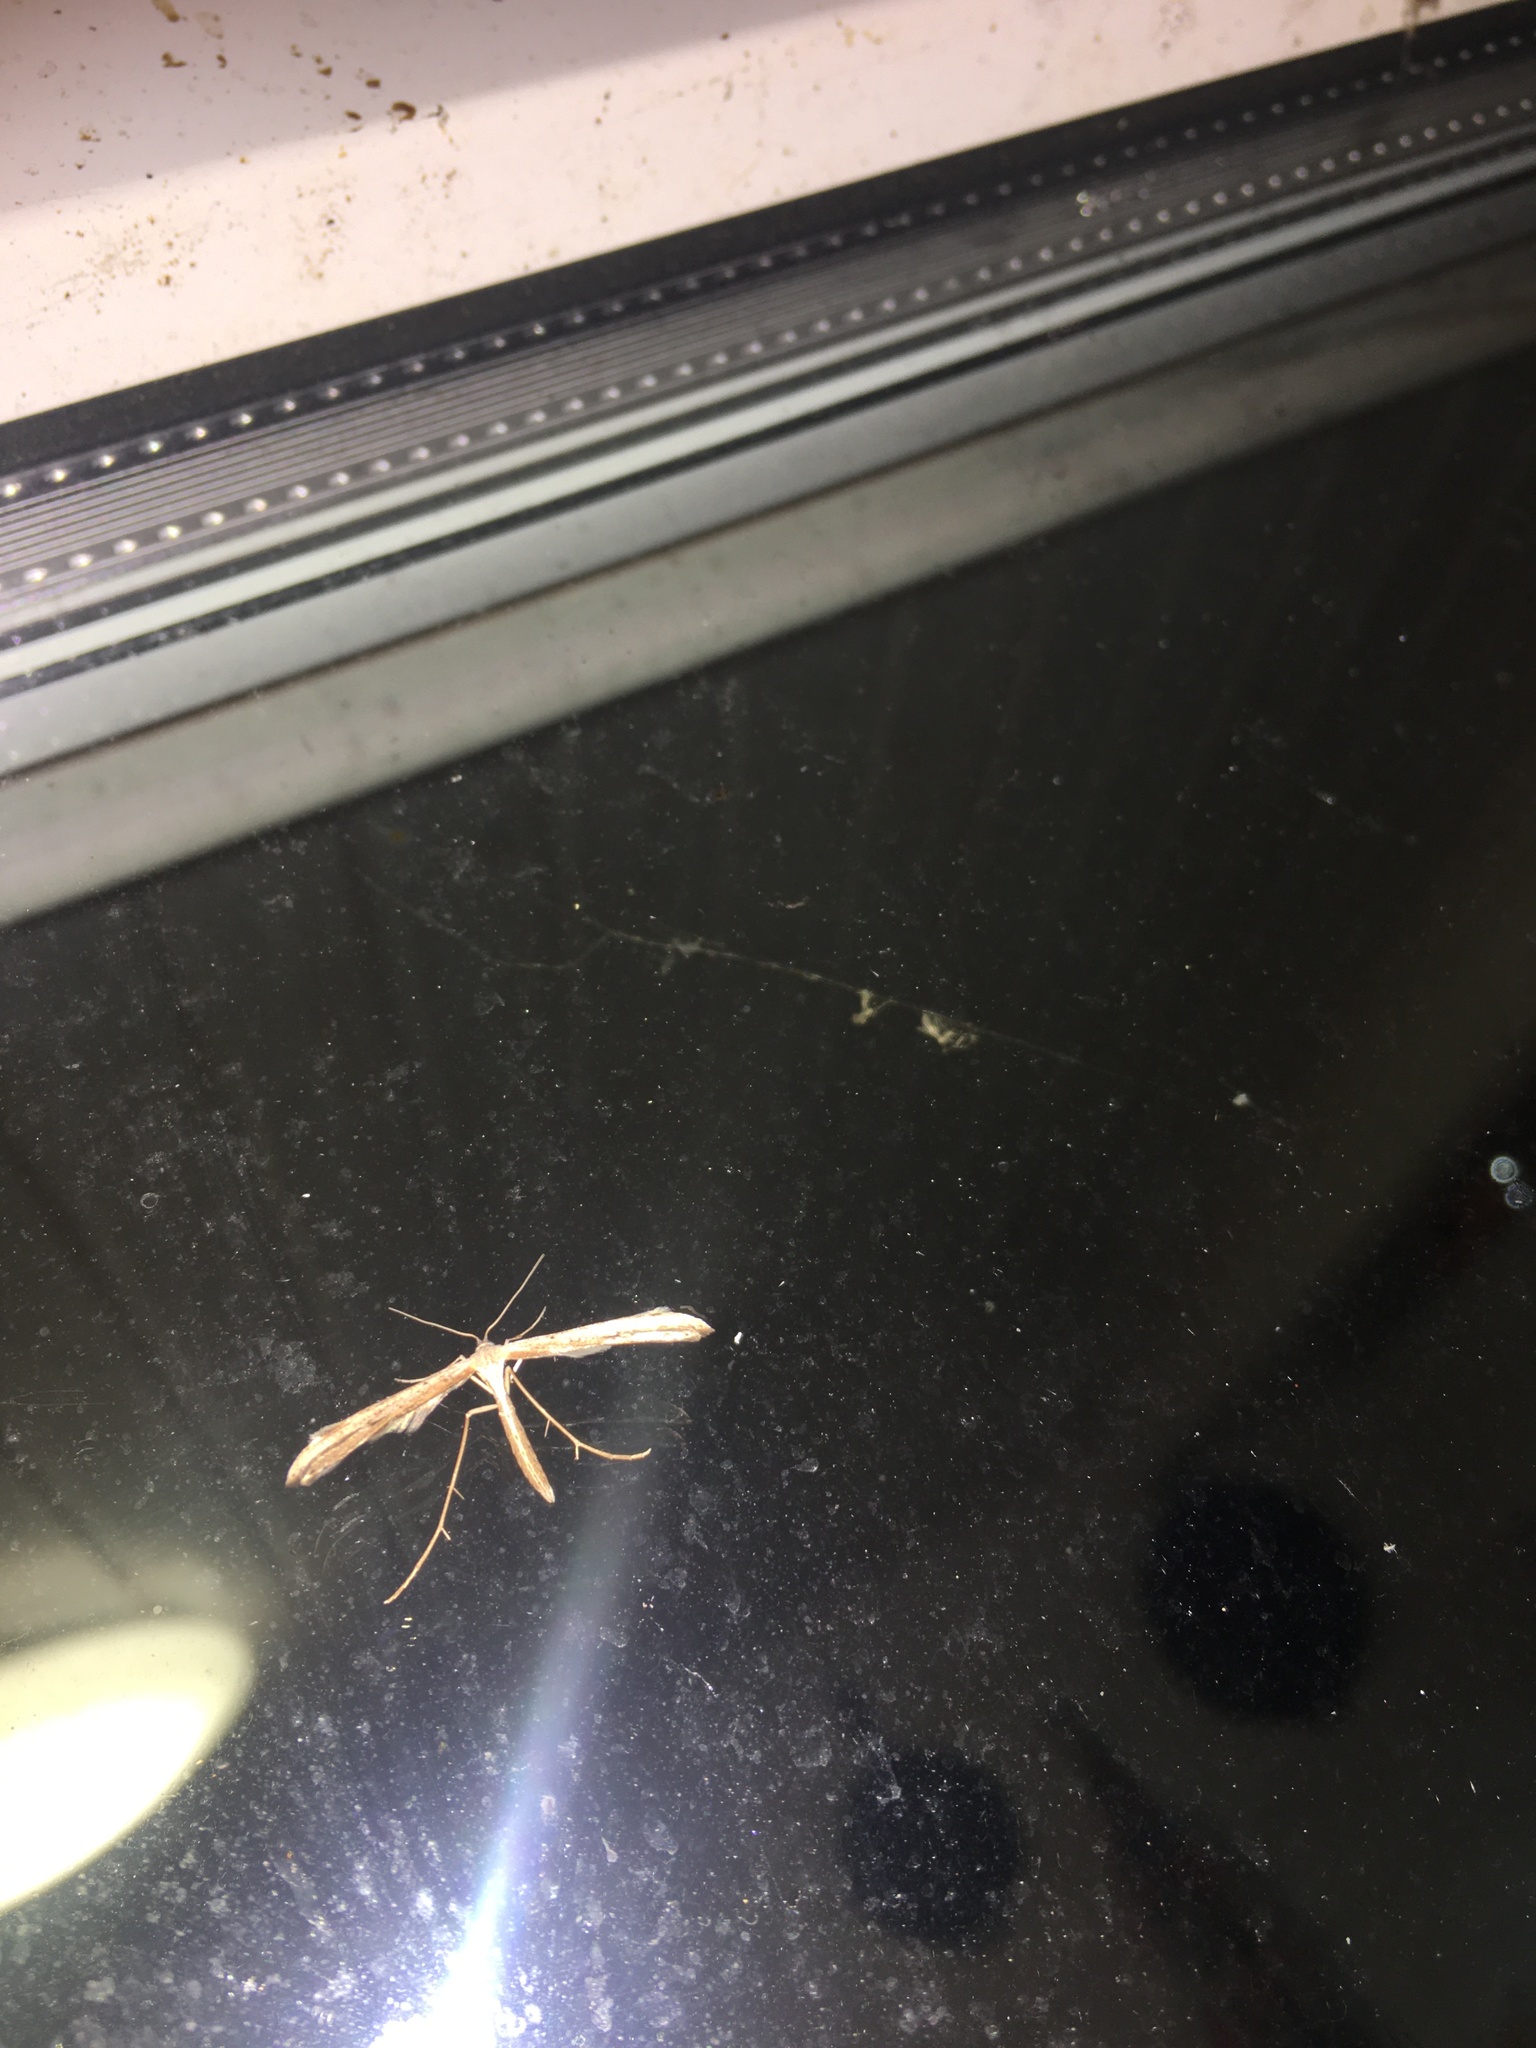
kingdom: Animalia
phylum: Arthropoda
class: Insecta
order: Lepidoptera
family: Pterophoridae
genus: Emmelina
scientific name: Emmelina monodactyla
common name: Common plume
